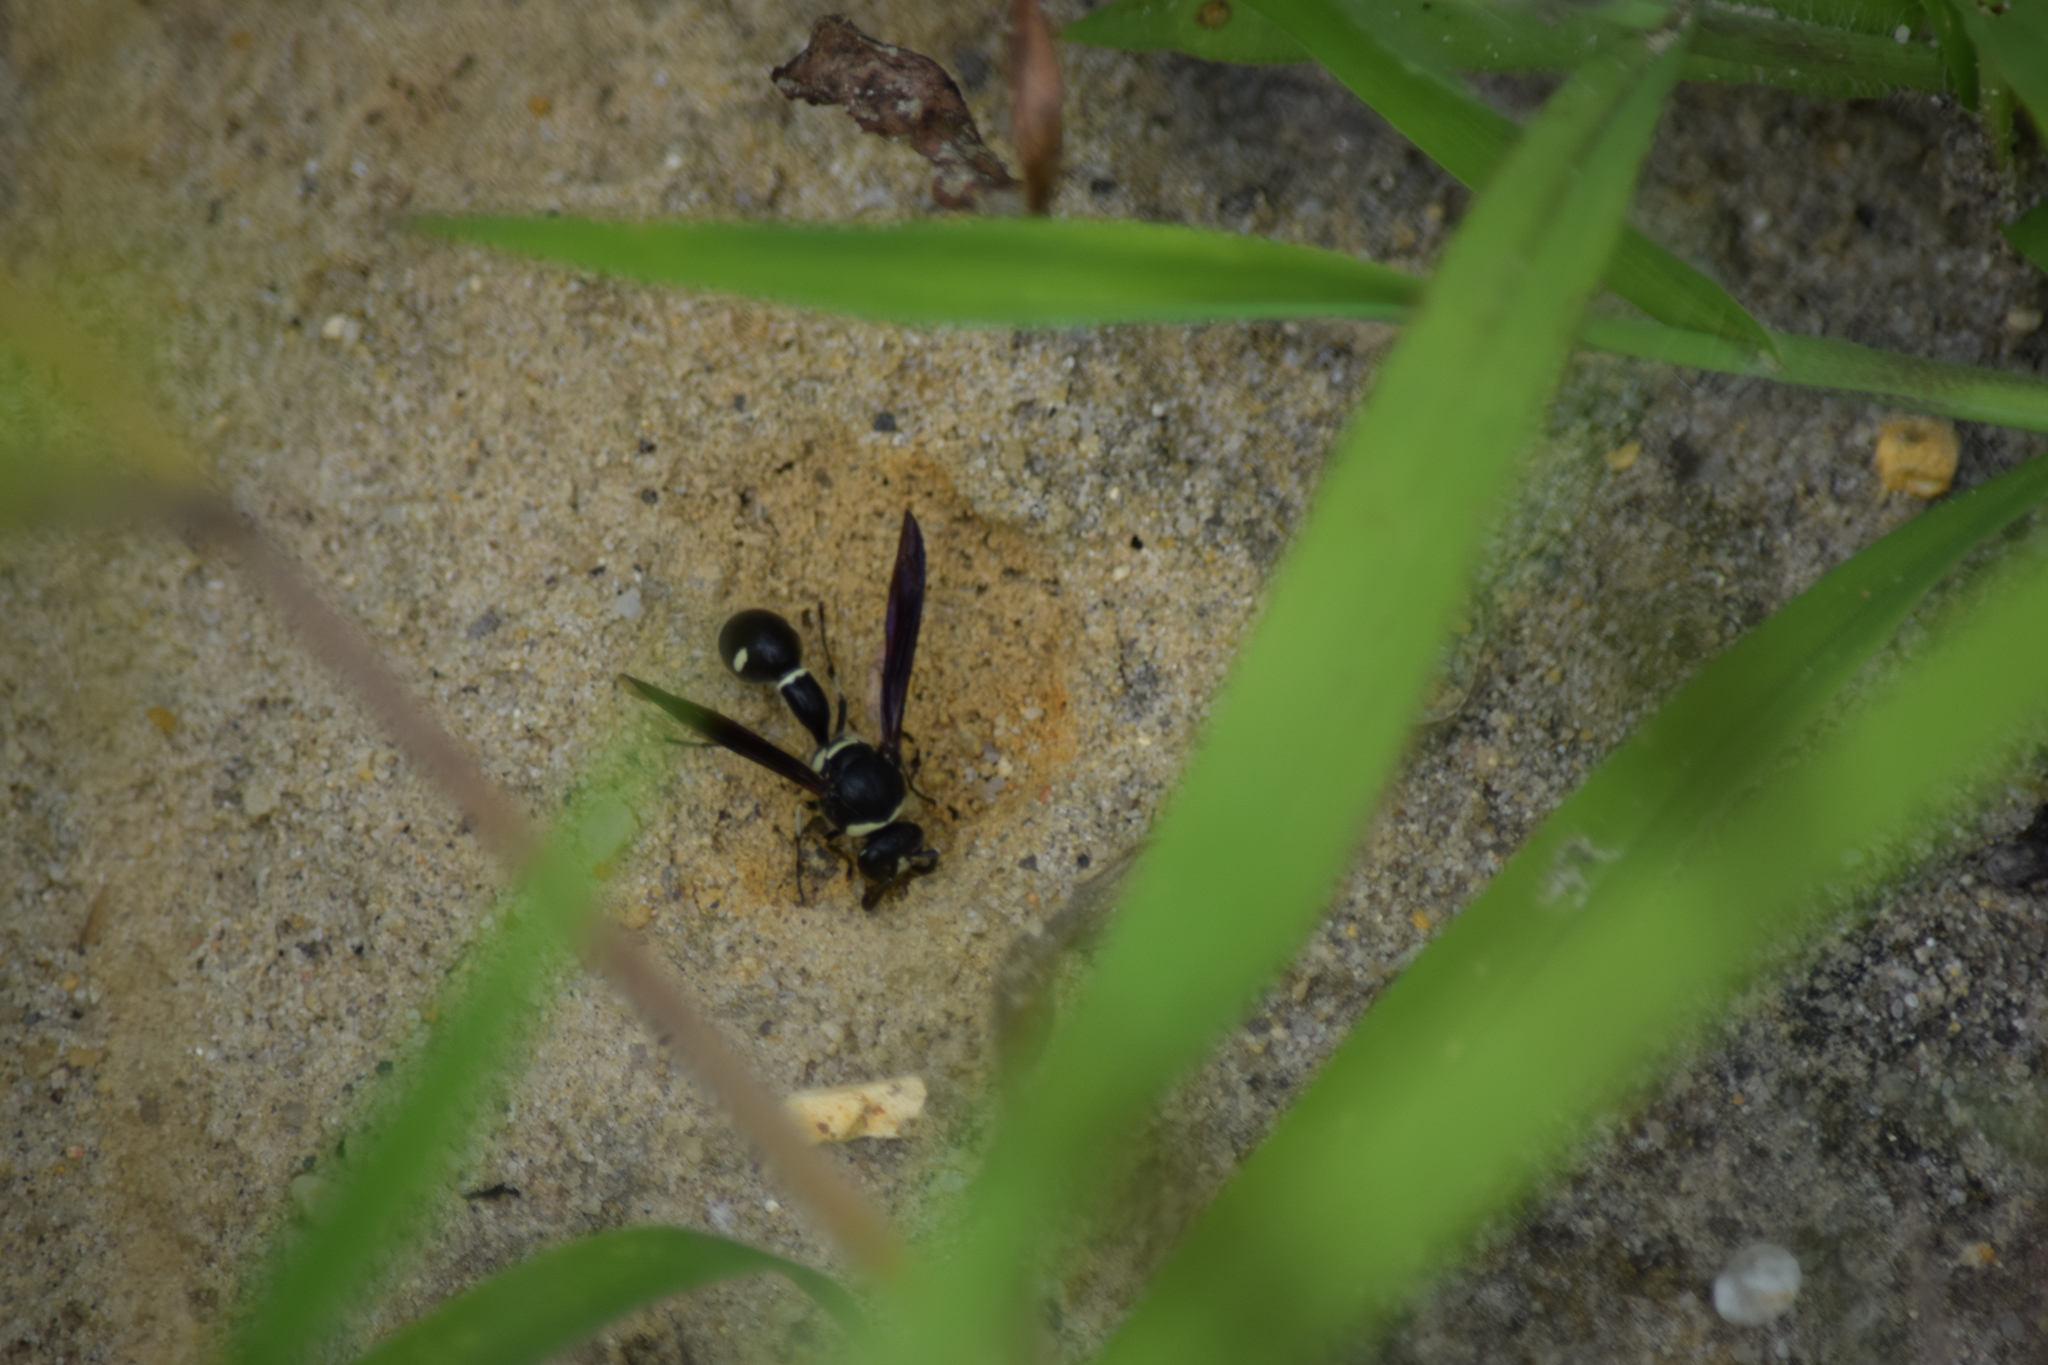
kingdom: Animalia
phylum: Arthropoda
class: Insecta
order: Hymenoptera
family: Vespidae
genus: Eumenes
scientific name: Eumenes fraternus
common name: Fraternal potter wasp
